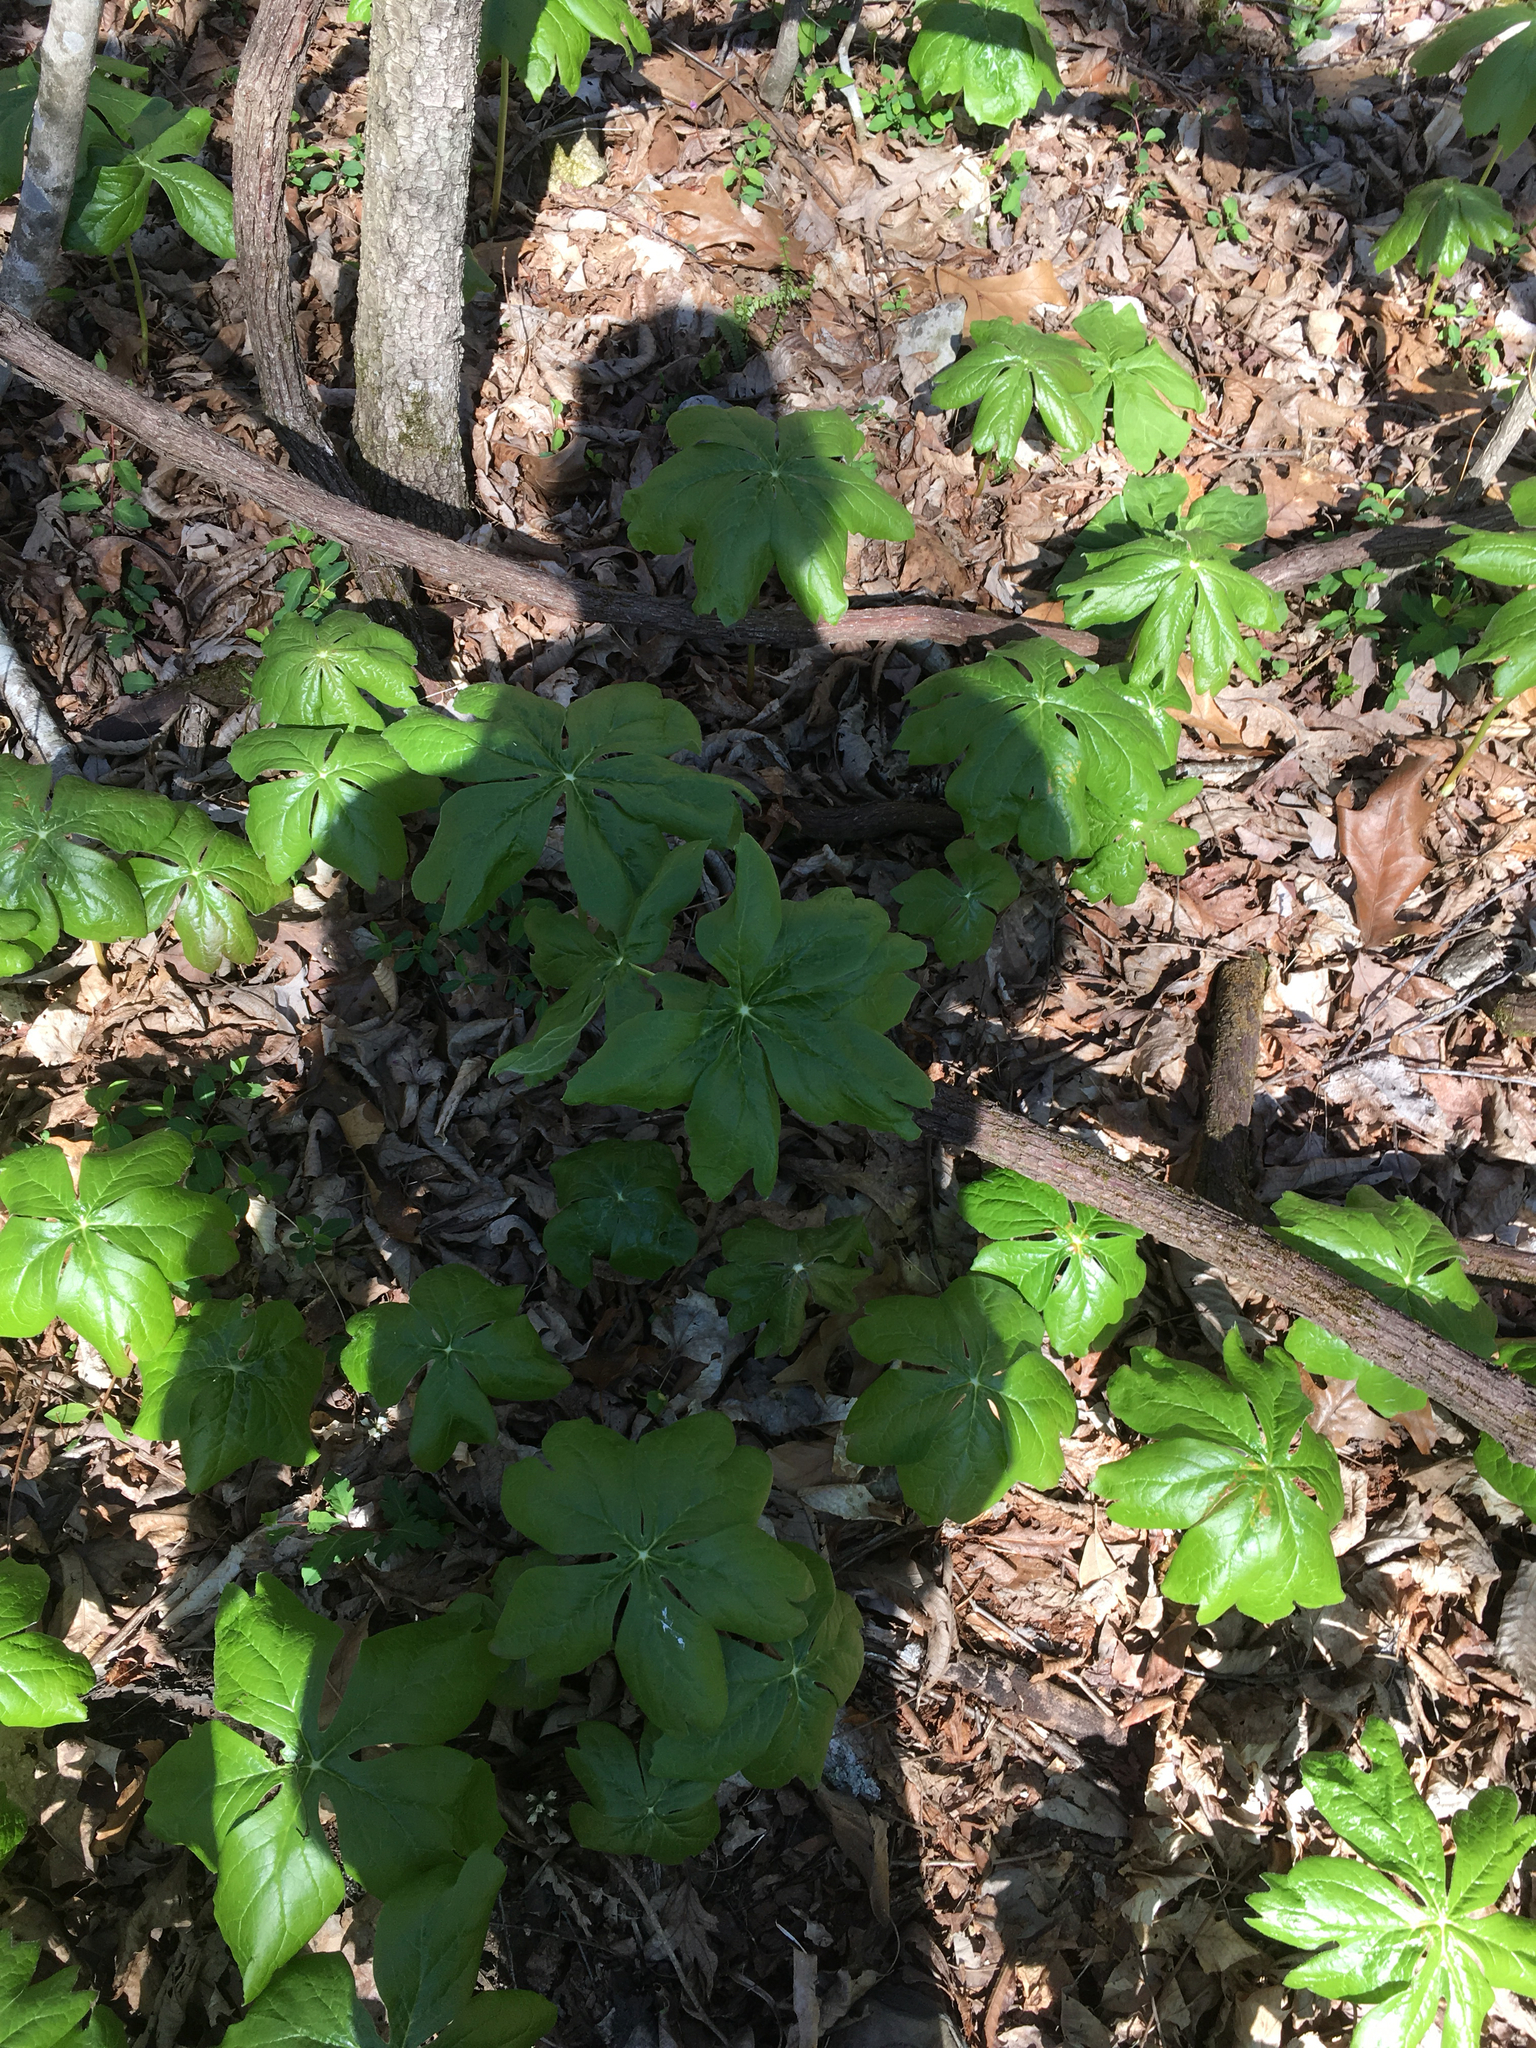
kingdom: Plantae
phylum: Tracheophyta
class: Magnoliopsida
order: Ranunculales
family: Berberidaceae
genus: Podophyllum
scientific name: Podophyllum peltatum
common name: Wild mandrake
